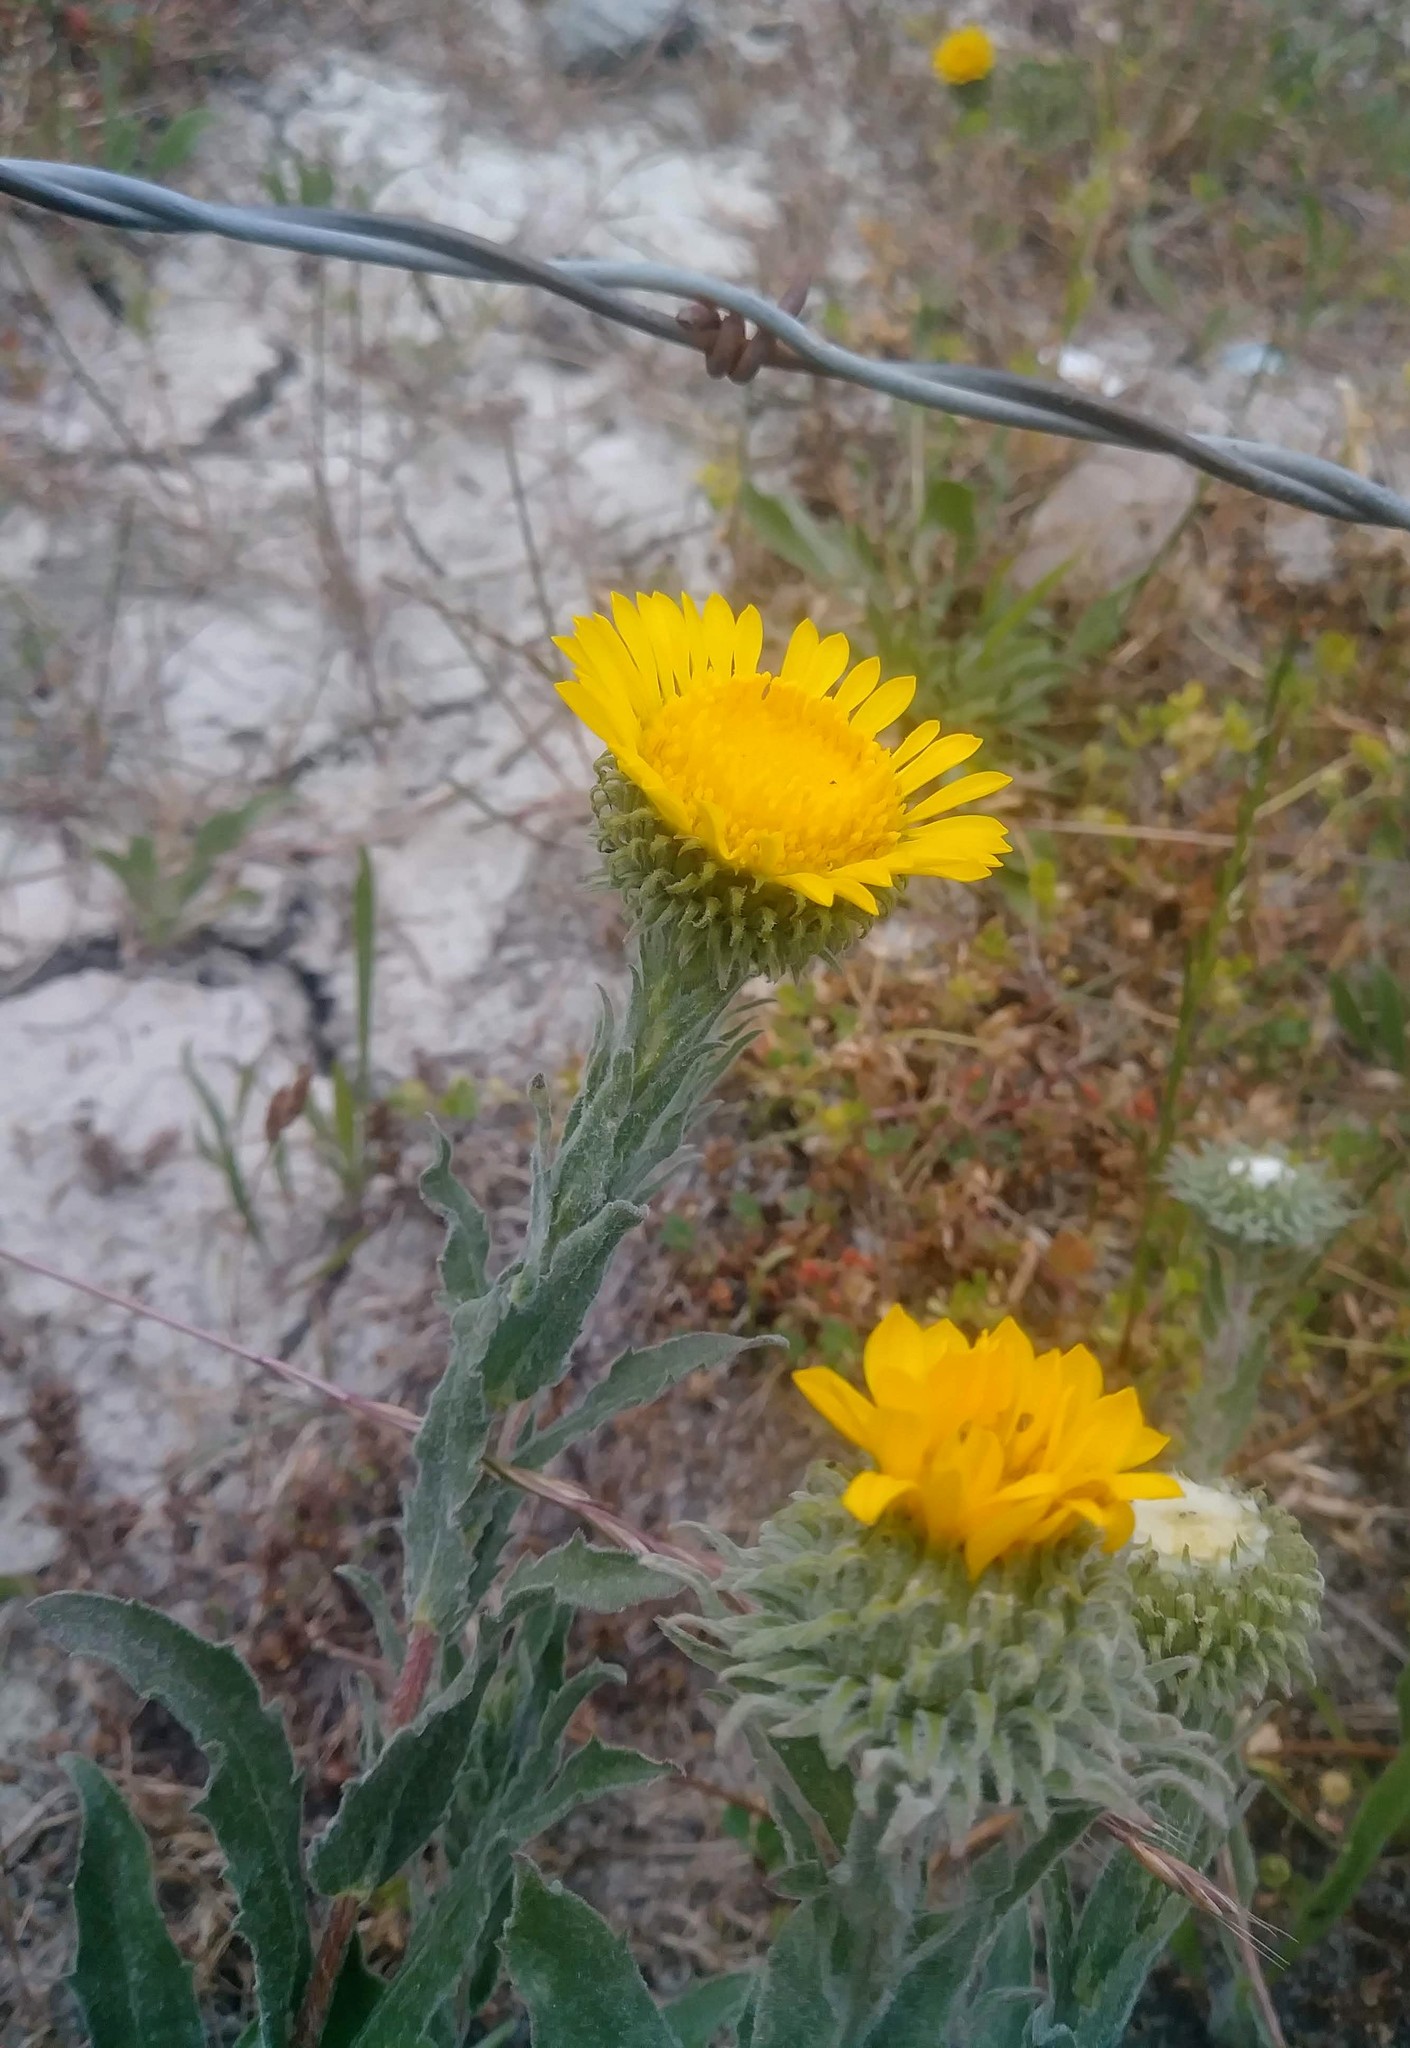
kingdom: Plantae
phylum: Tracheophyta
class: Magnoliopsida
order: Asterales
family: Asteraceae
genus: Grindelia
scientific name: Grindelia hirsutula
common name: Hairy gumweed
